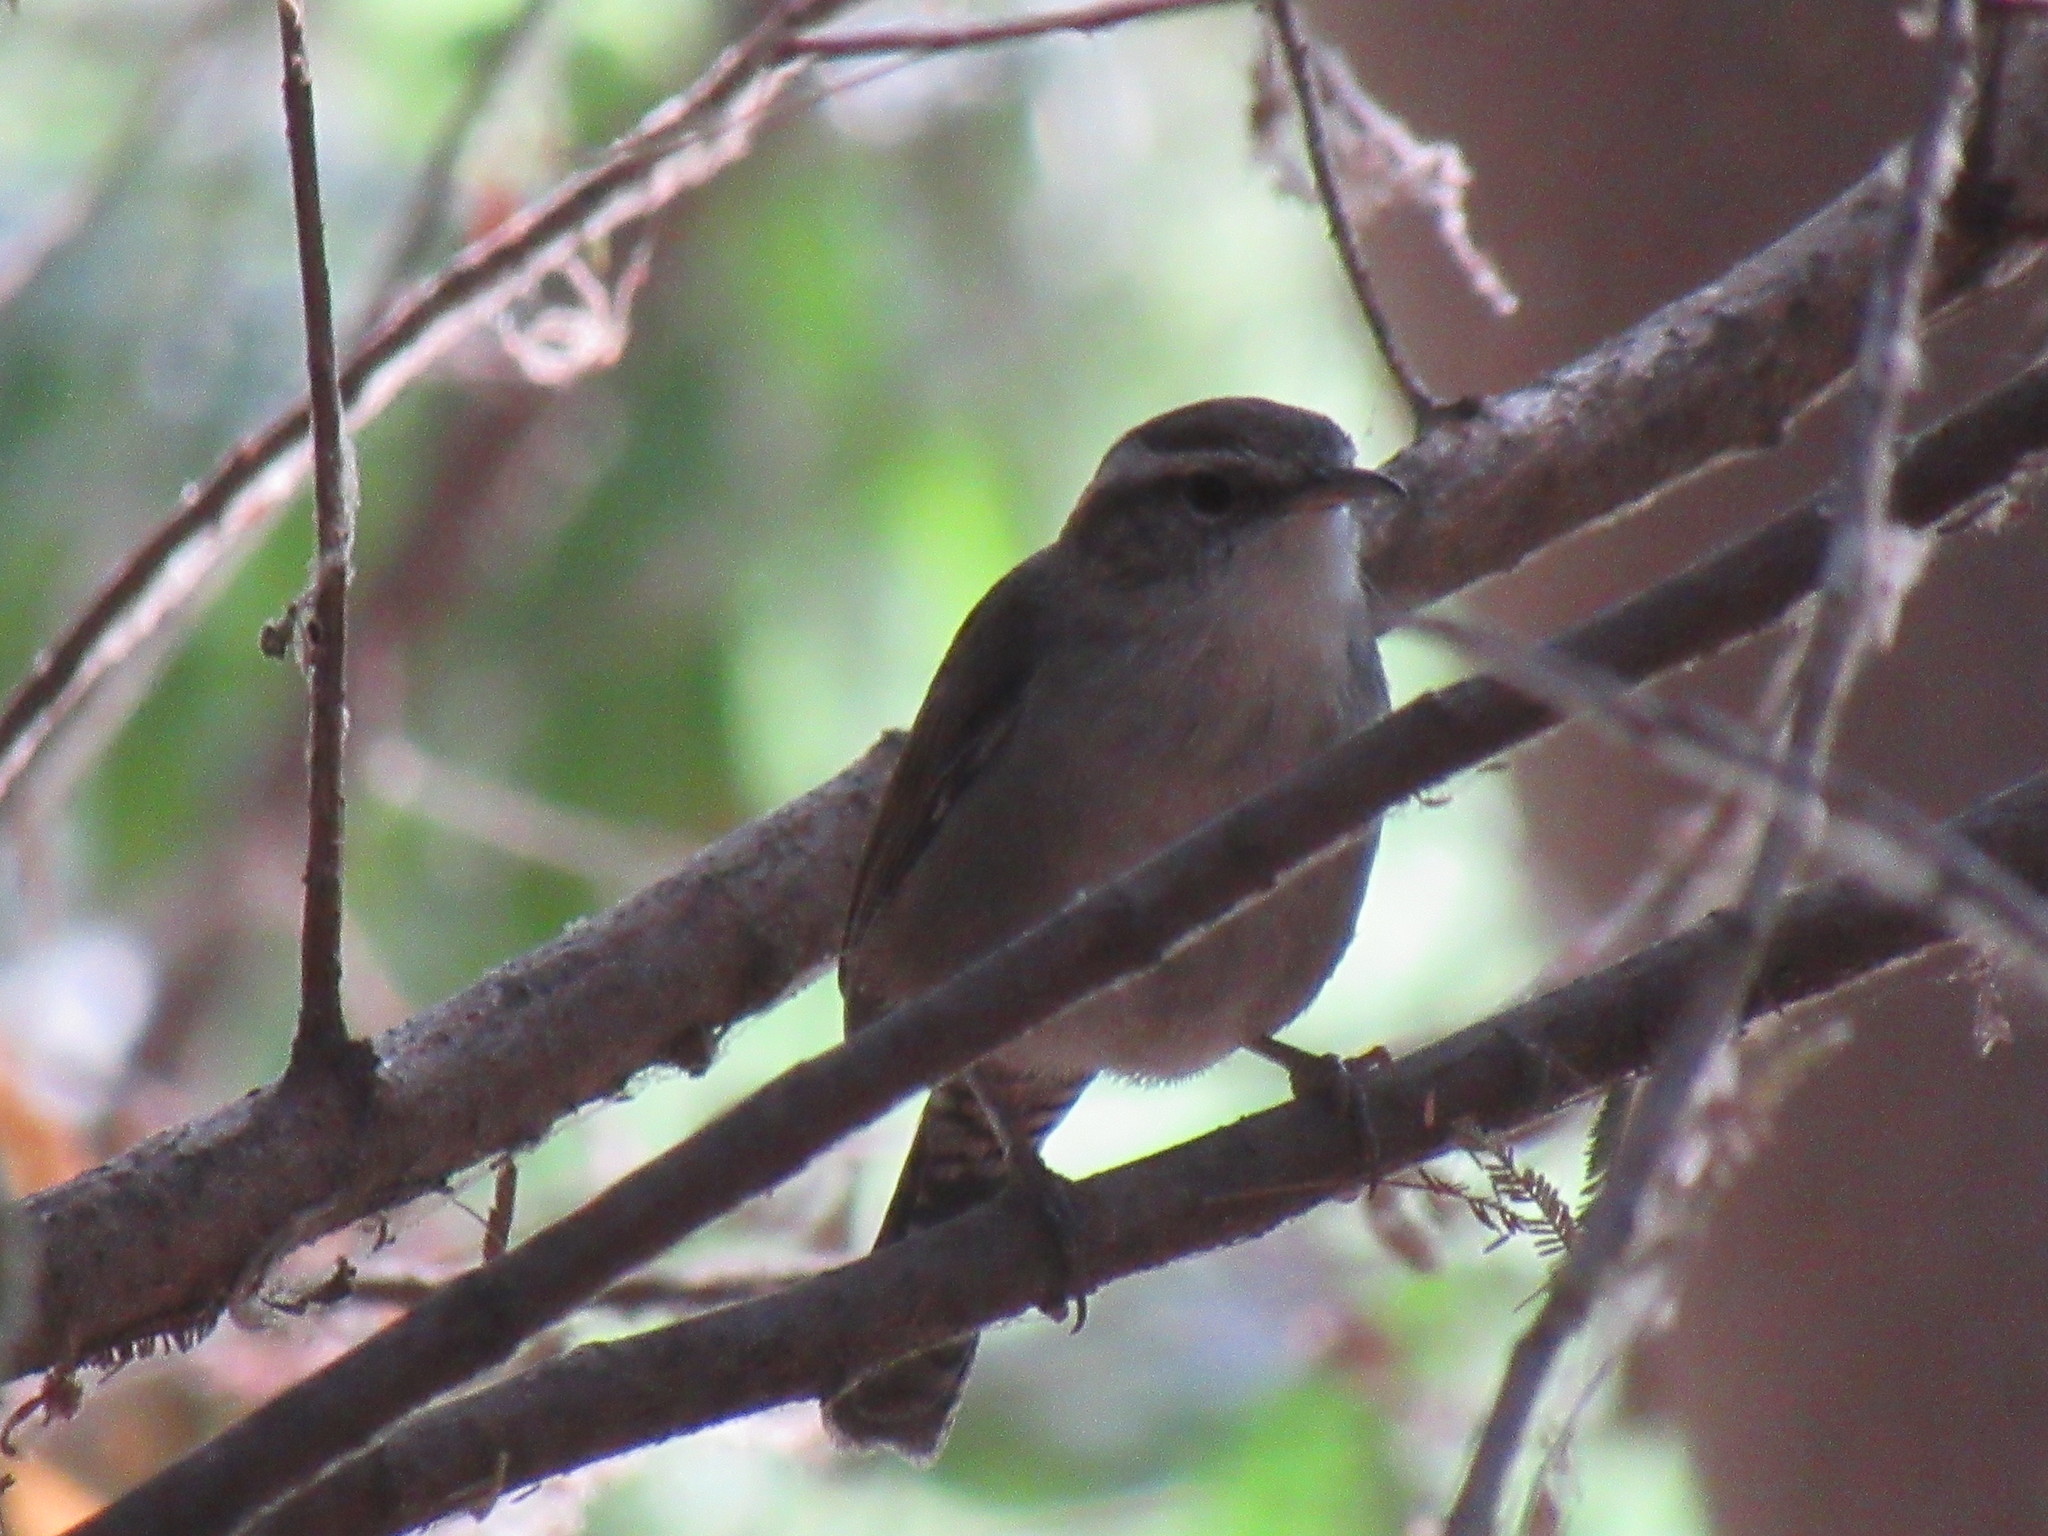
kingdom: Animalia
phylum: Chordata
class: Aves
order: Passeriformes
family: Troglodytidae
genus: Thryomanes
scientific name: Thryomanes bewickii
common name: Bewick's wren
